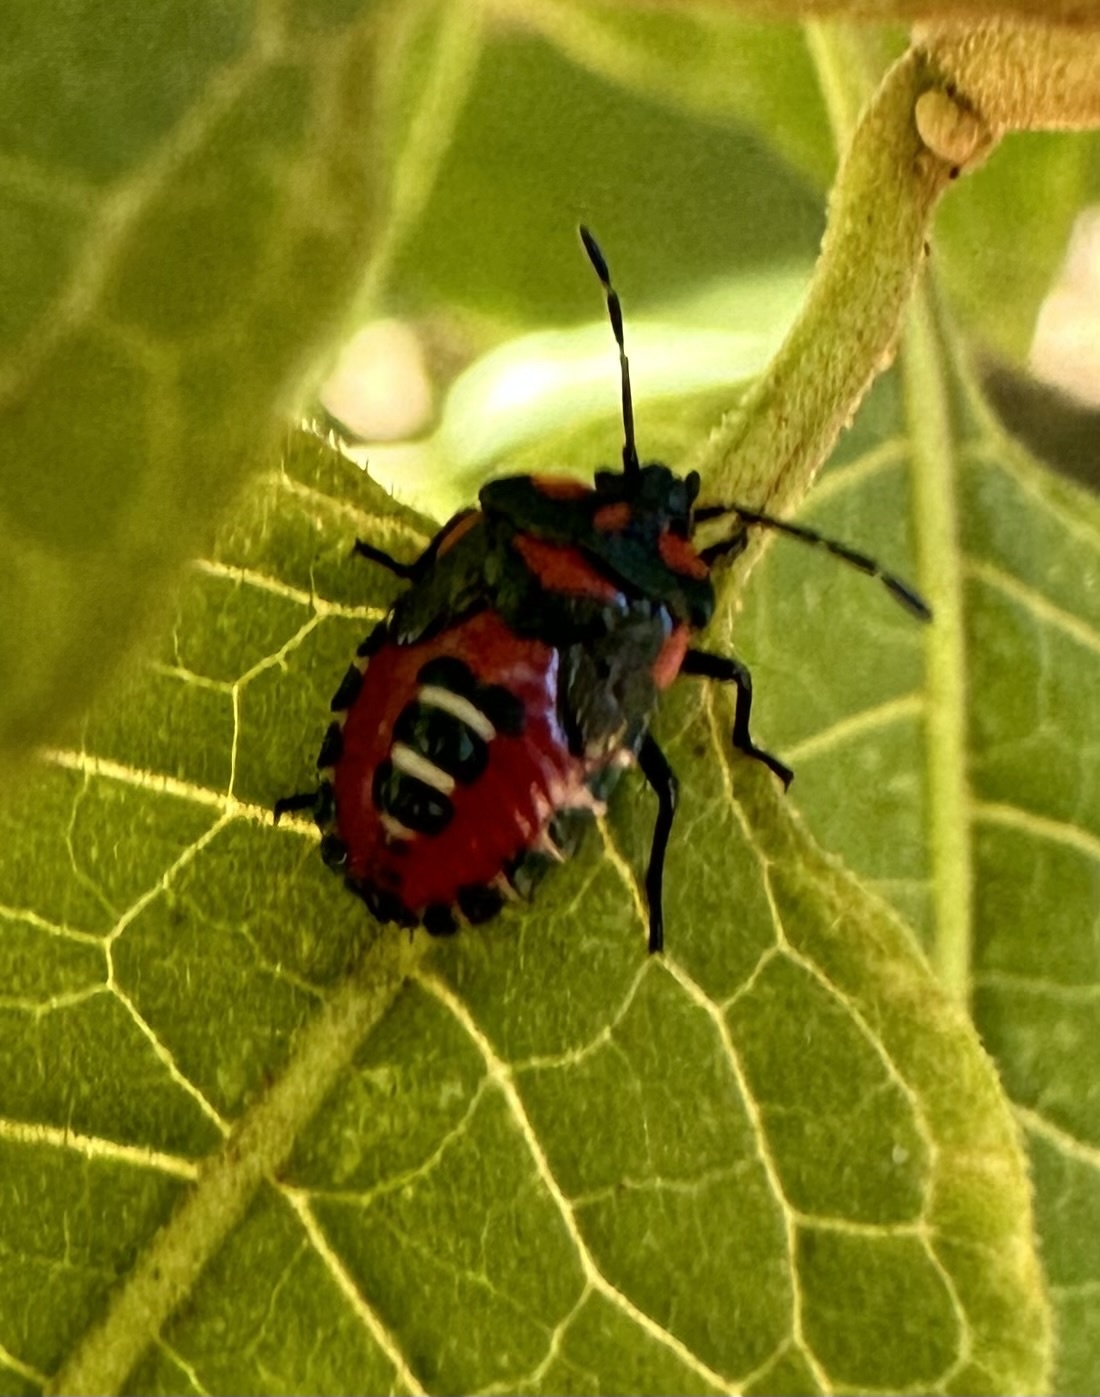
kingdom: Animalia
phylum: Arthropoda
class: Insecta
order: Hemiptera
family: Pentatomidae
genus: Tylospilus
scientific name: Tylospilus
